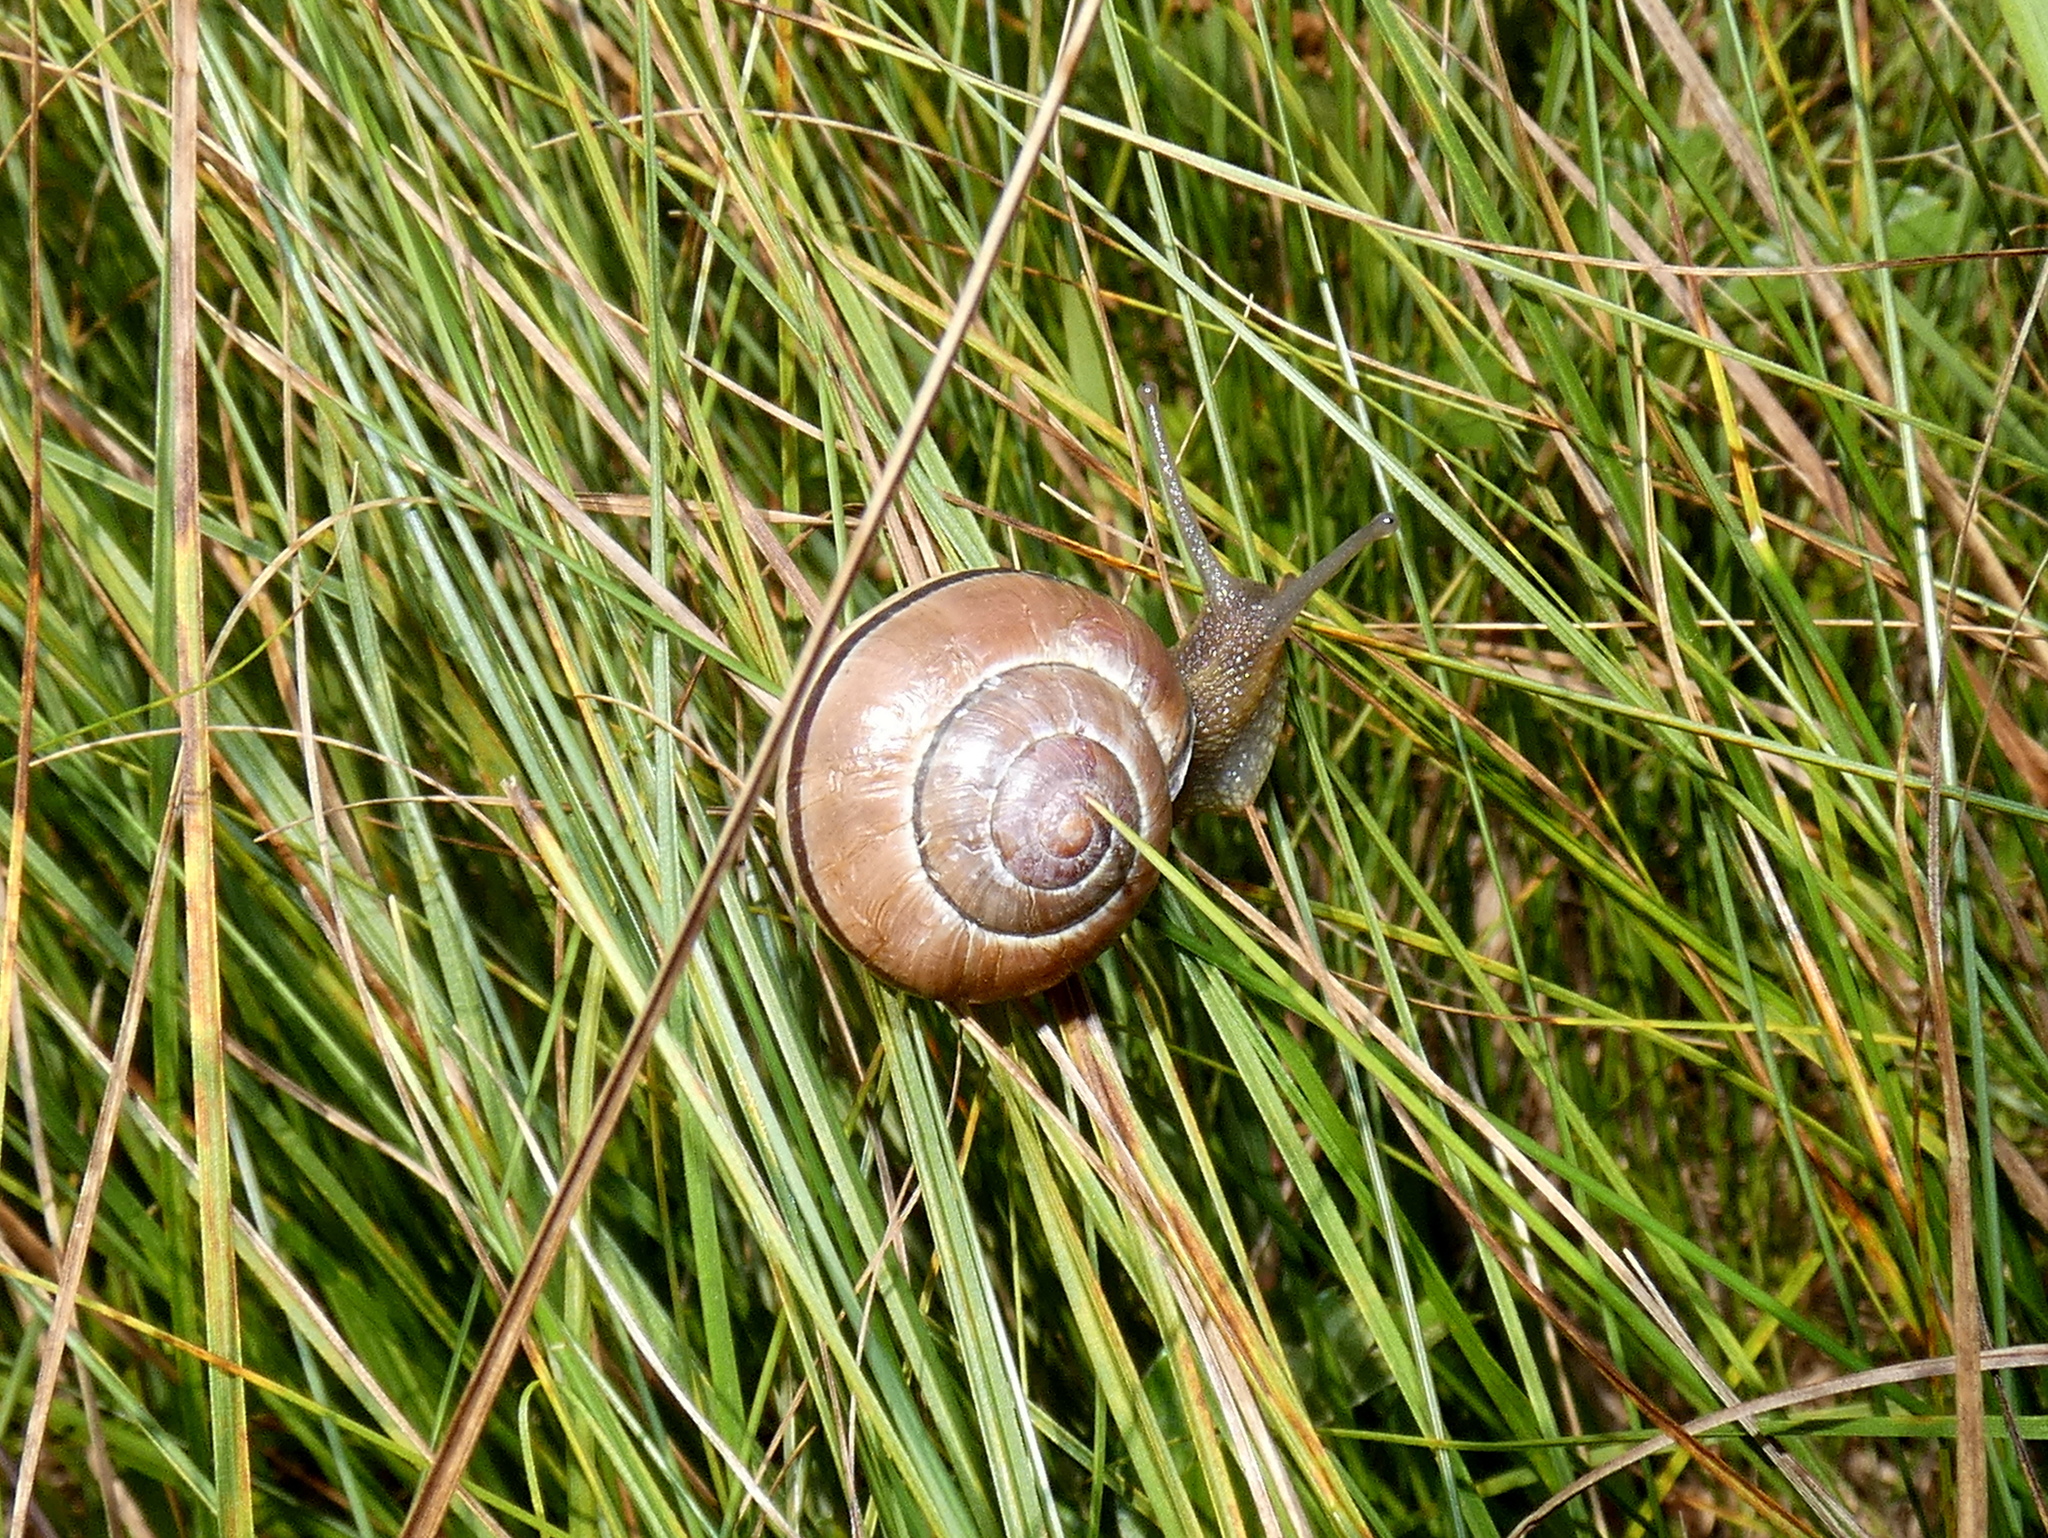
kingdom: Animalia
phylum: Mollusca
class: Gastropoda
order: Stylommatophora
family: Helicidae
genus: Cepaea
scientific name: Cepaea nemoralis
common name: Grovesnail
